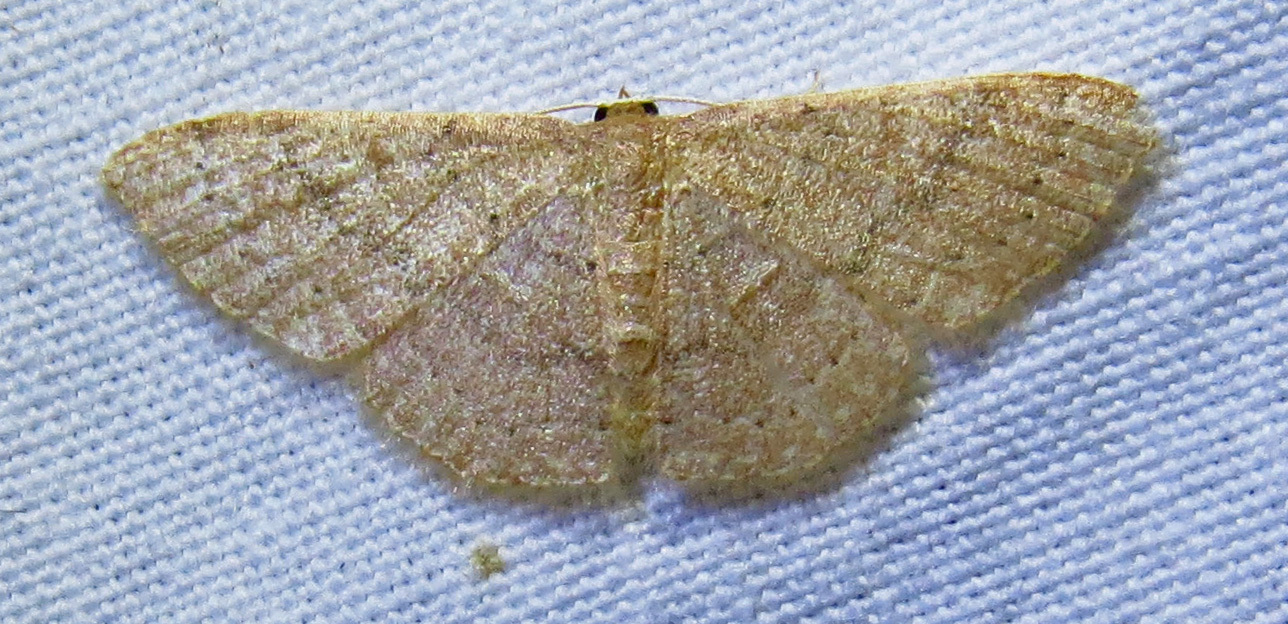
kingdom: Animalia
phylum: Arthropoda
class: Insecta
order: Lepidoptera
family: Geometridae
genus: Pleuroprucha
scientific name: Pleuroprucha insulsaria
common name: Common tan wave
